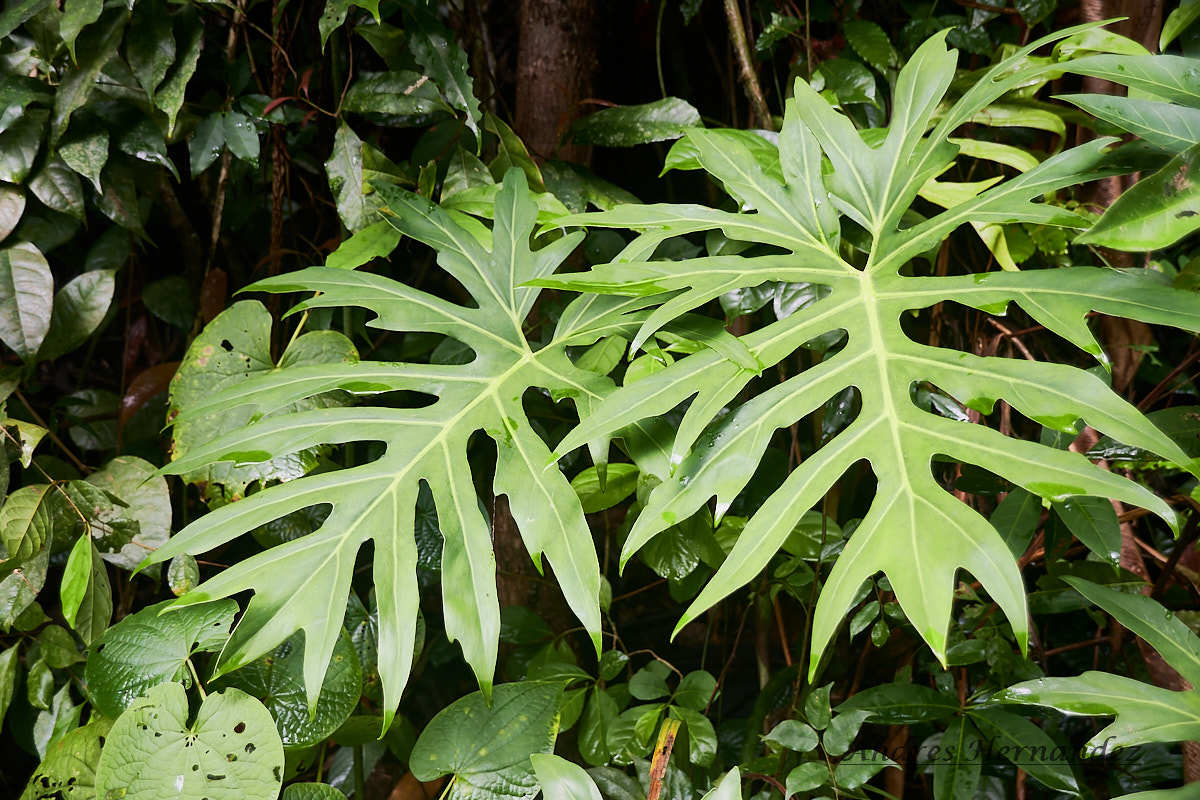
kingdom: Plantae
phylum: Tracheophyta
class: Liliopsida
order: Alismatales
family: Araceae
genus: Philodendron
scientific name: Philodendron radiatum
